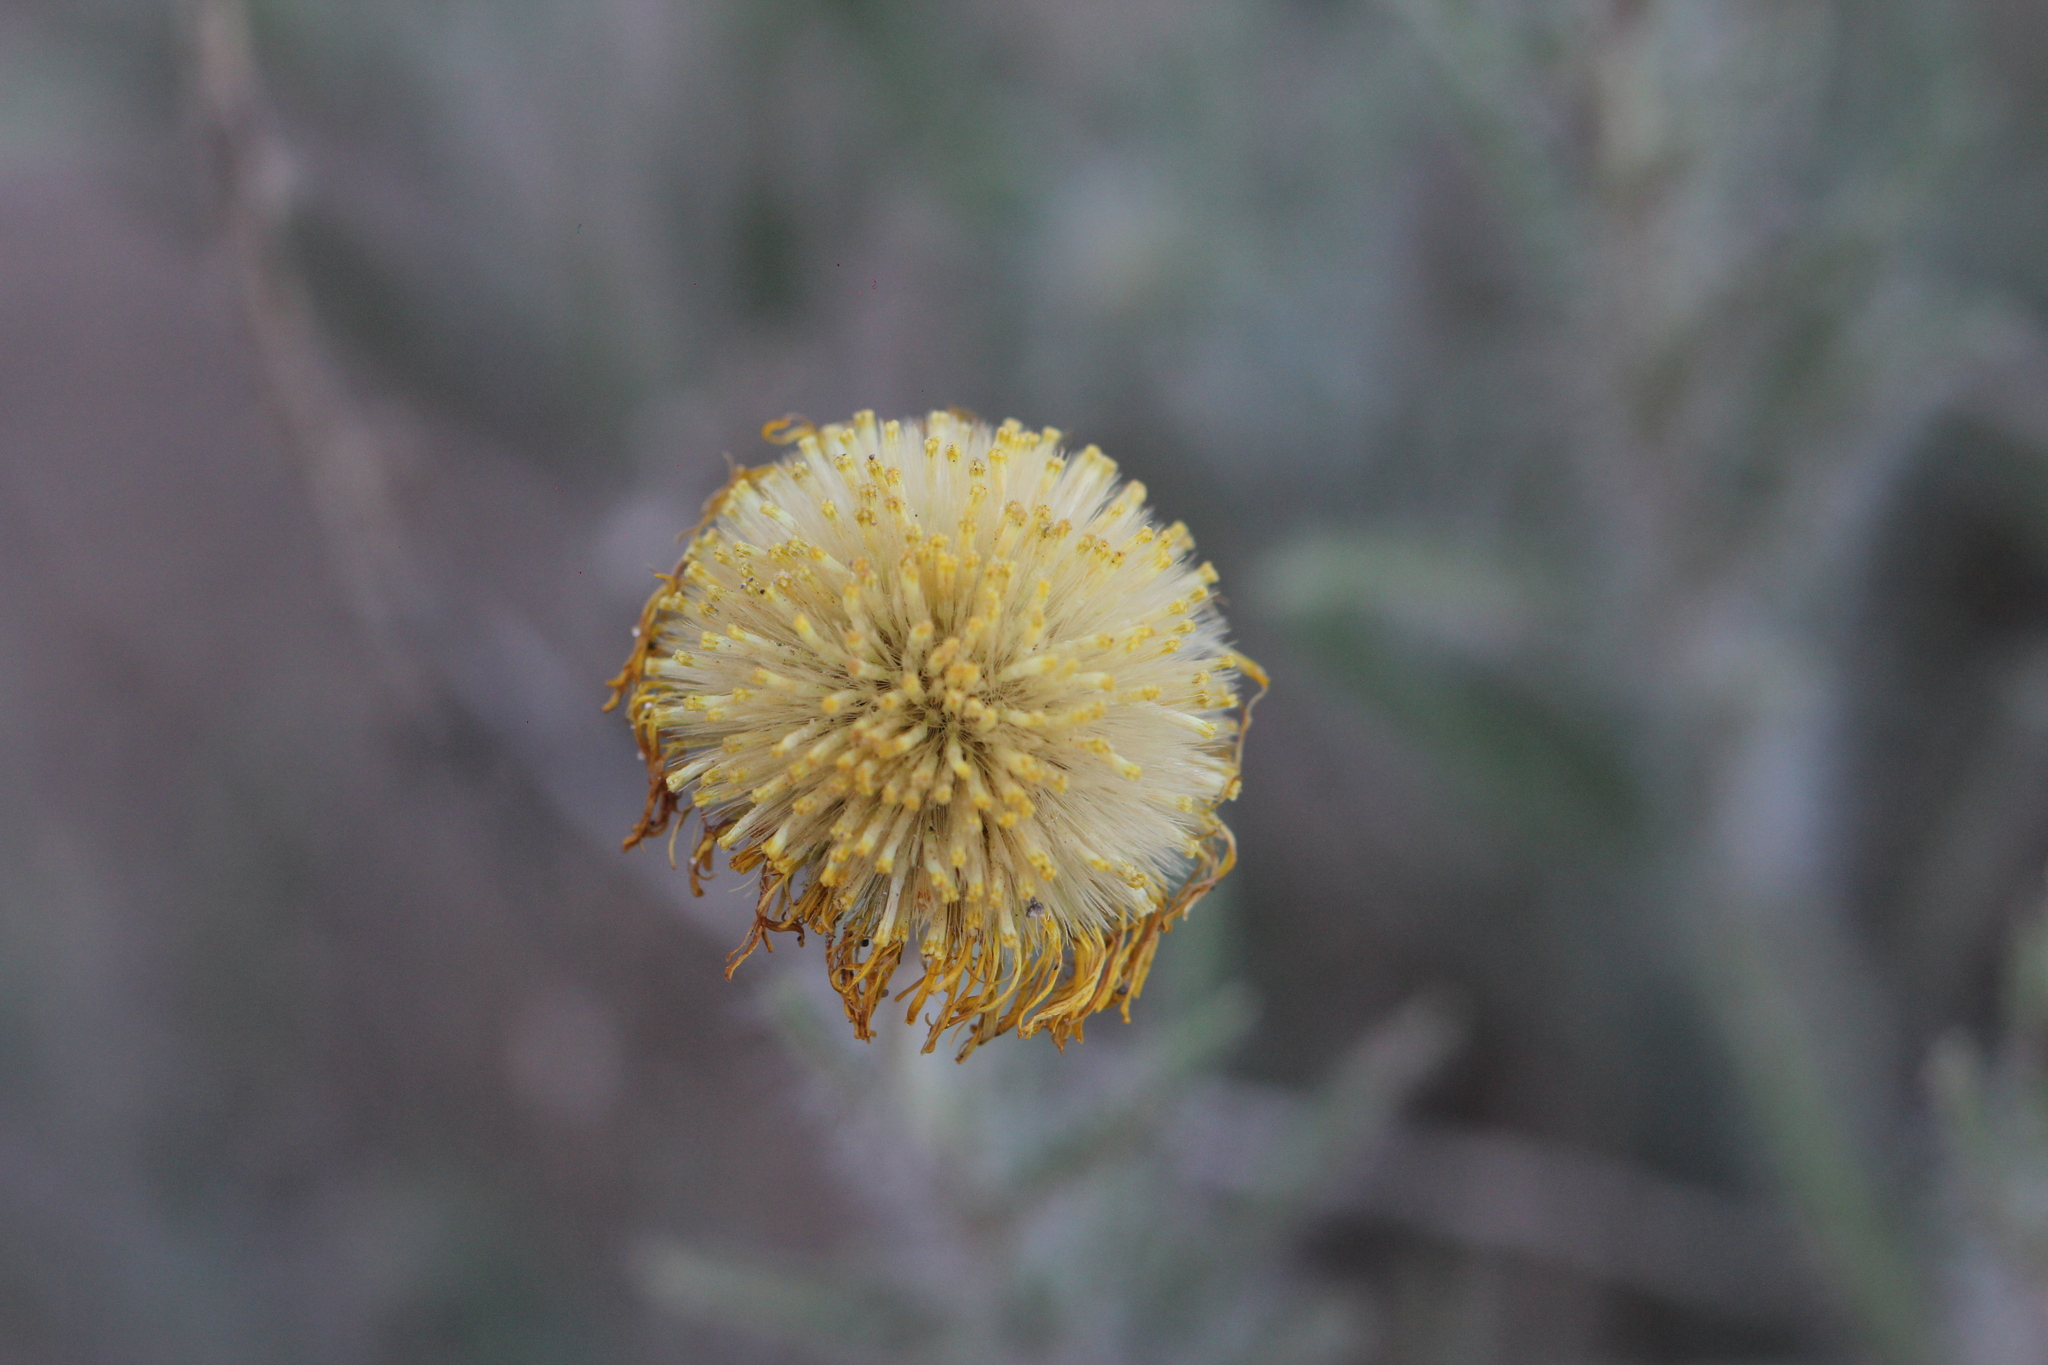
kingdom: Plantae
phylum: Tracheophyta
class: Magnoliopsida
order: Asterales
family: Asteraceae
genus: Hysterionica
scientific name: Hysterionica jasionoides
